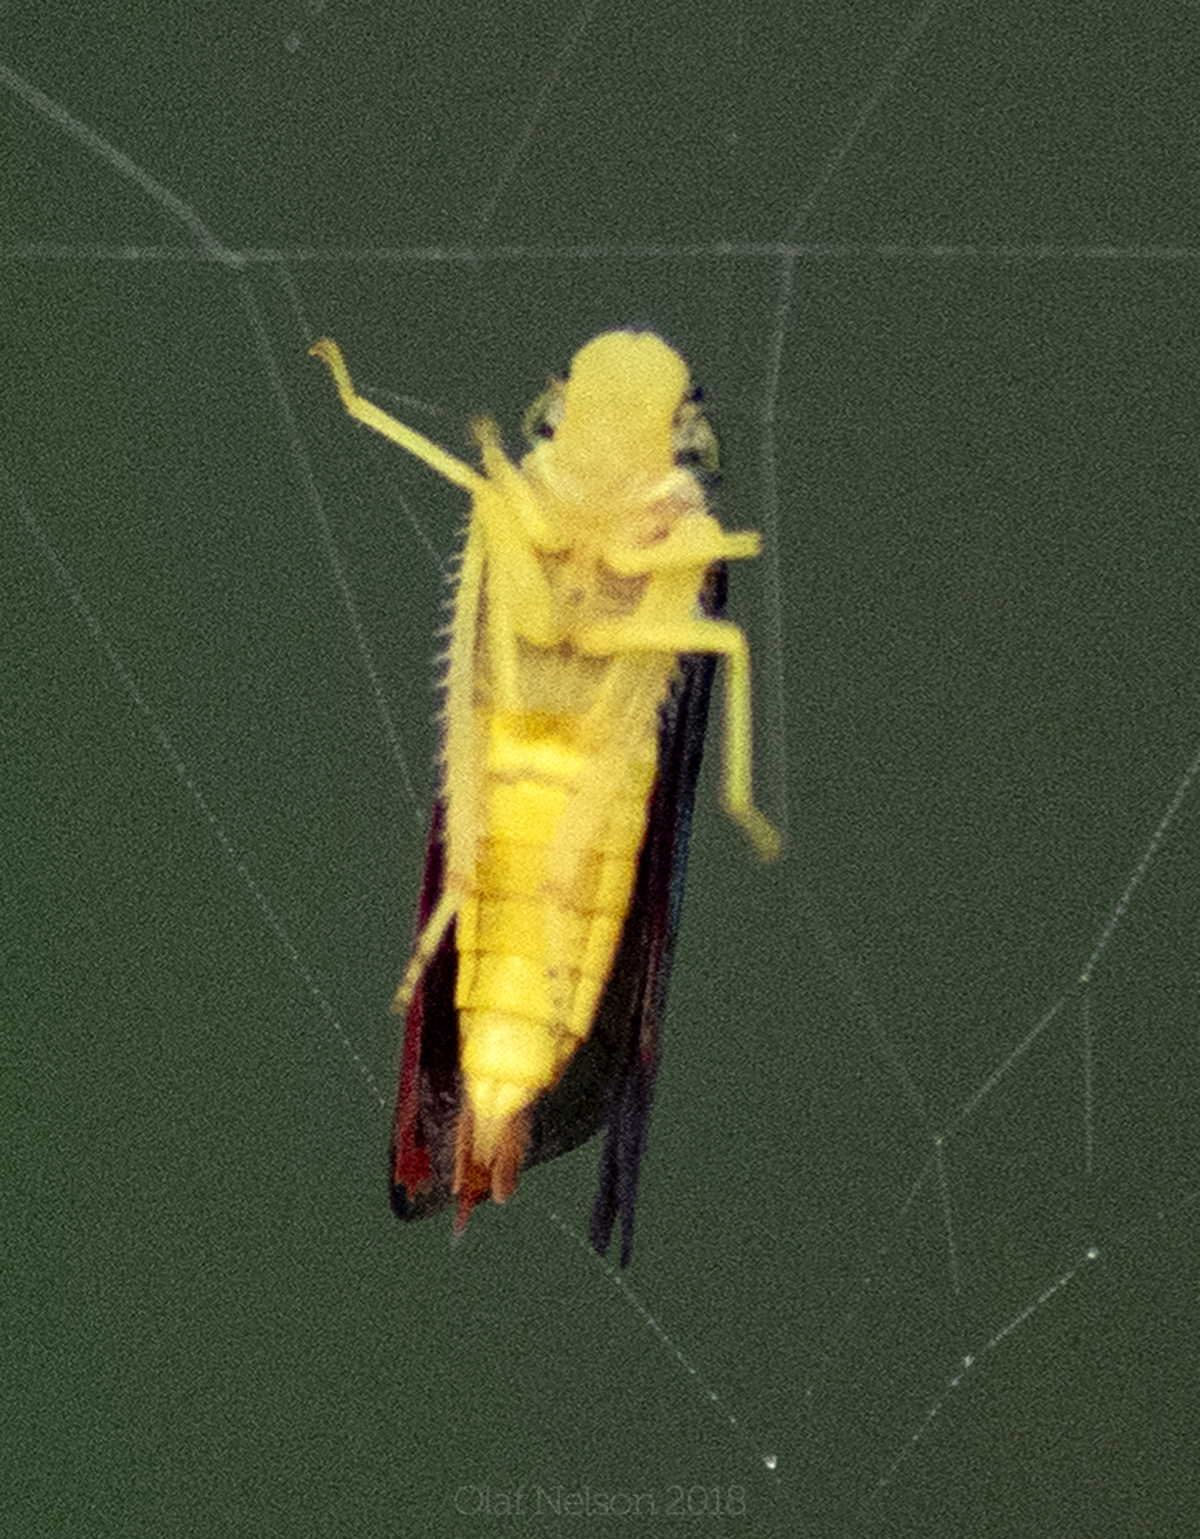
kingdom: Animalia
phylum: Arthropoda
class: Insecta
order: Hemiptera
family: Cicadellidae
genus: Graphocephala
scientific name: Graphocephala coccinea
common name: Candy-striped leafhopper
